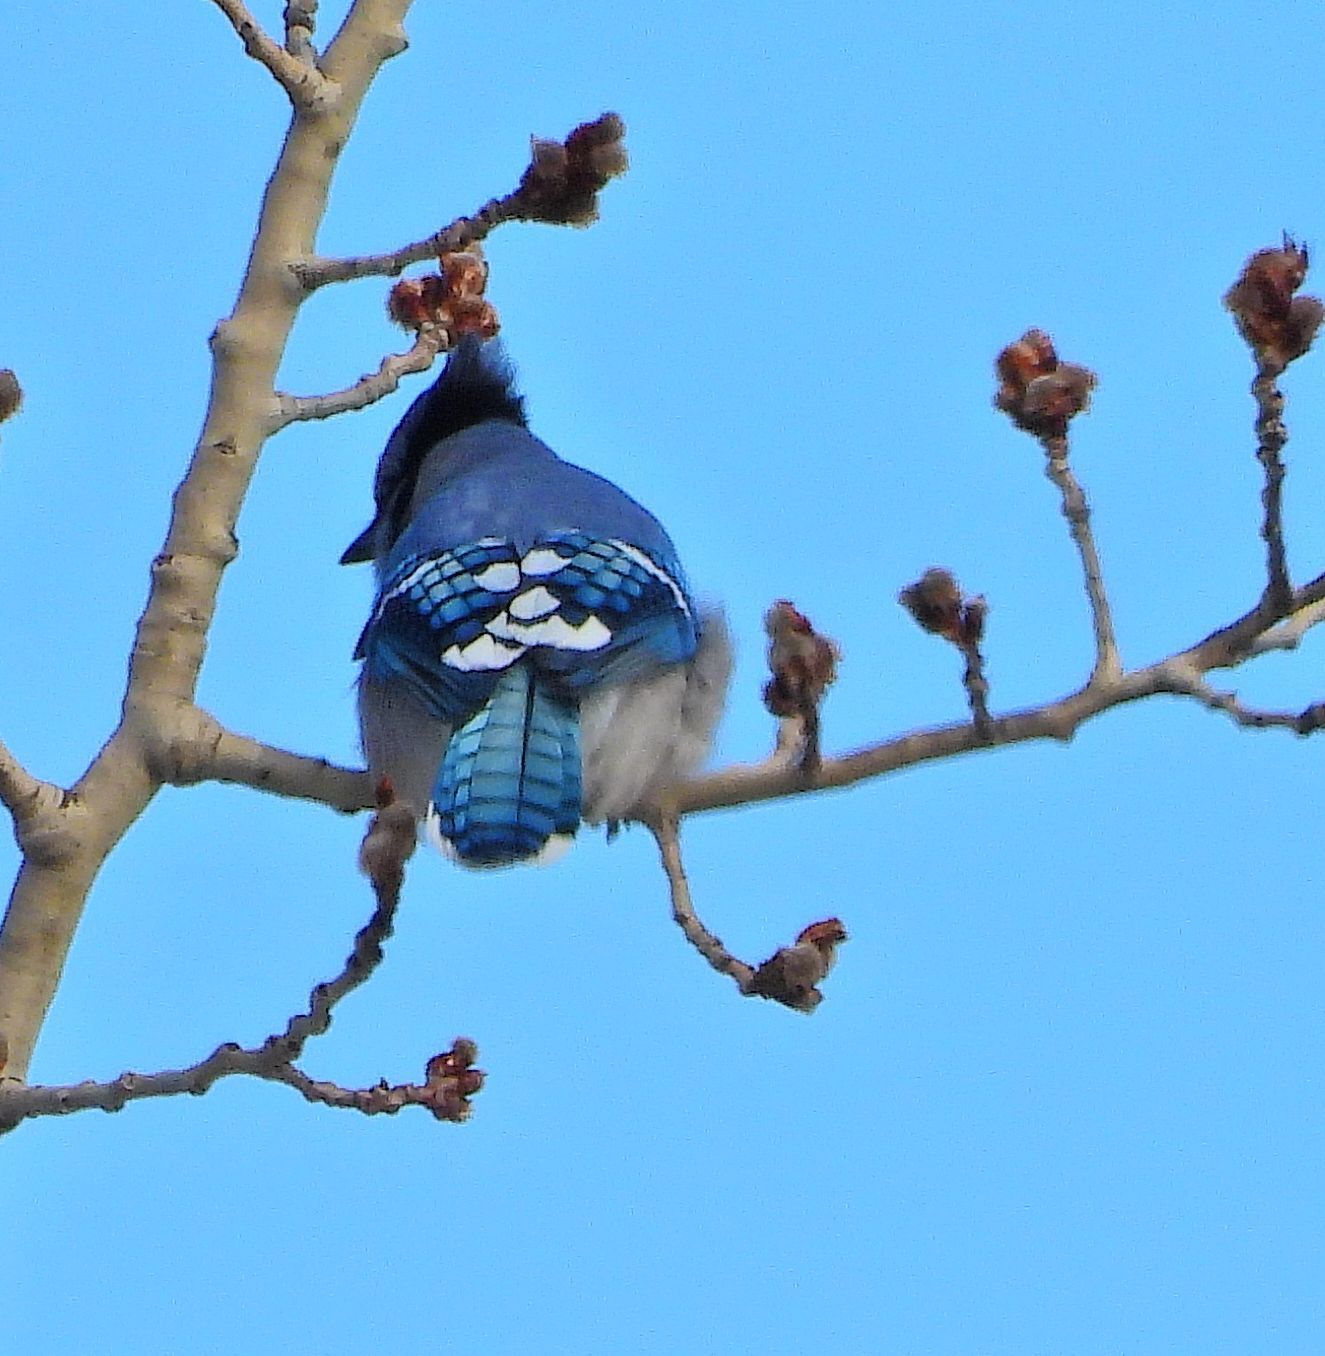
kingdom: Animalia
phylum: Chordata
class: Aves
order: Passeriformes
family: Corvidae
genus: Cyanocitta
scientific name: Cyanocitta cristata
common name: Blue jay
